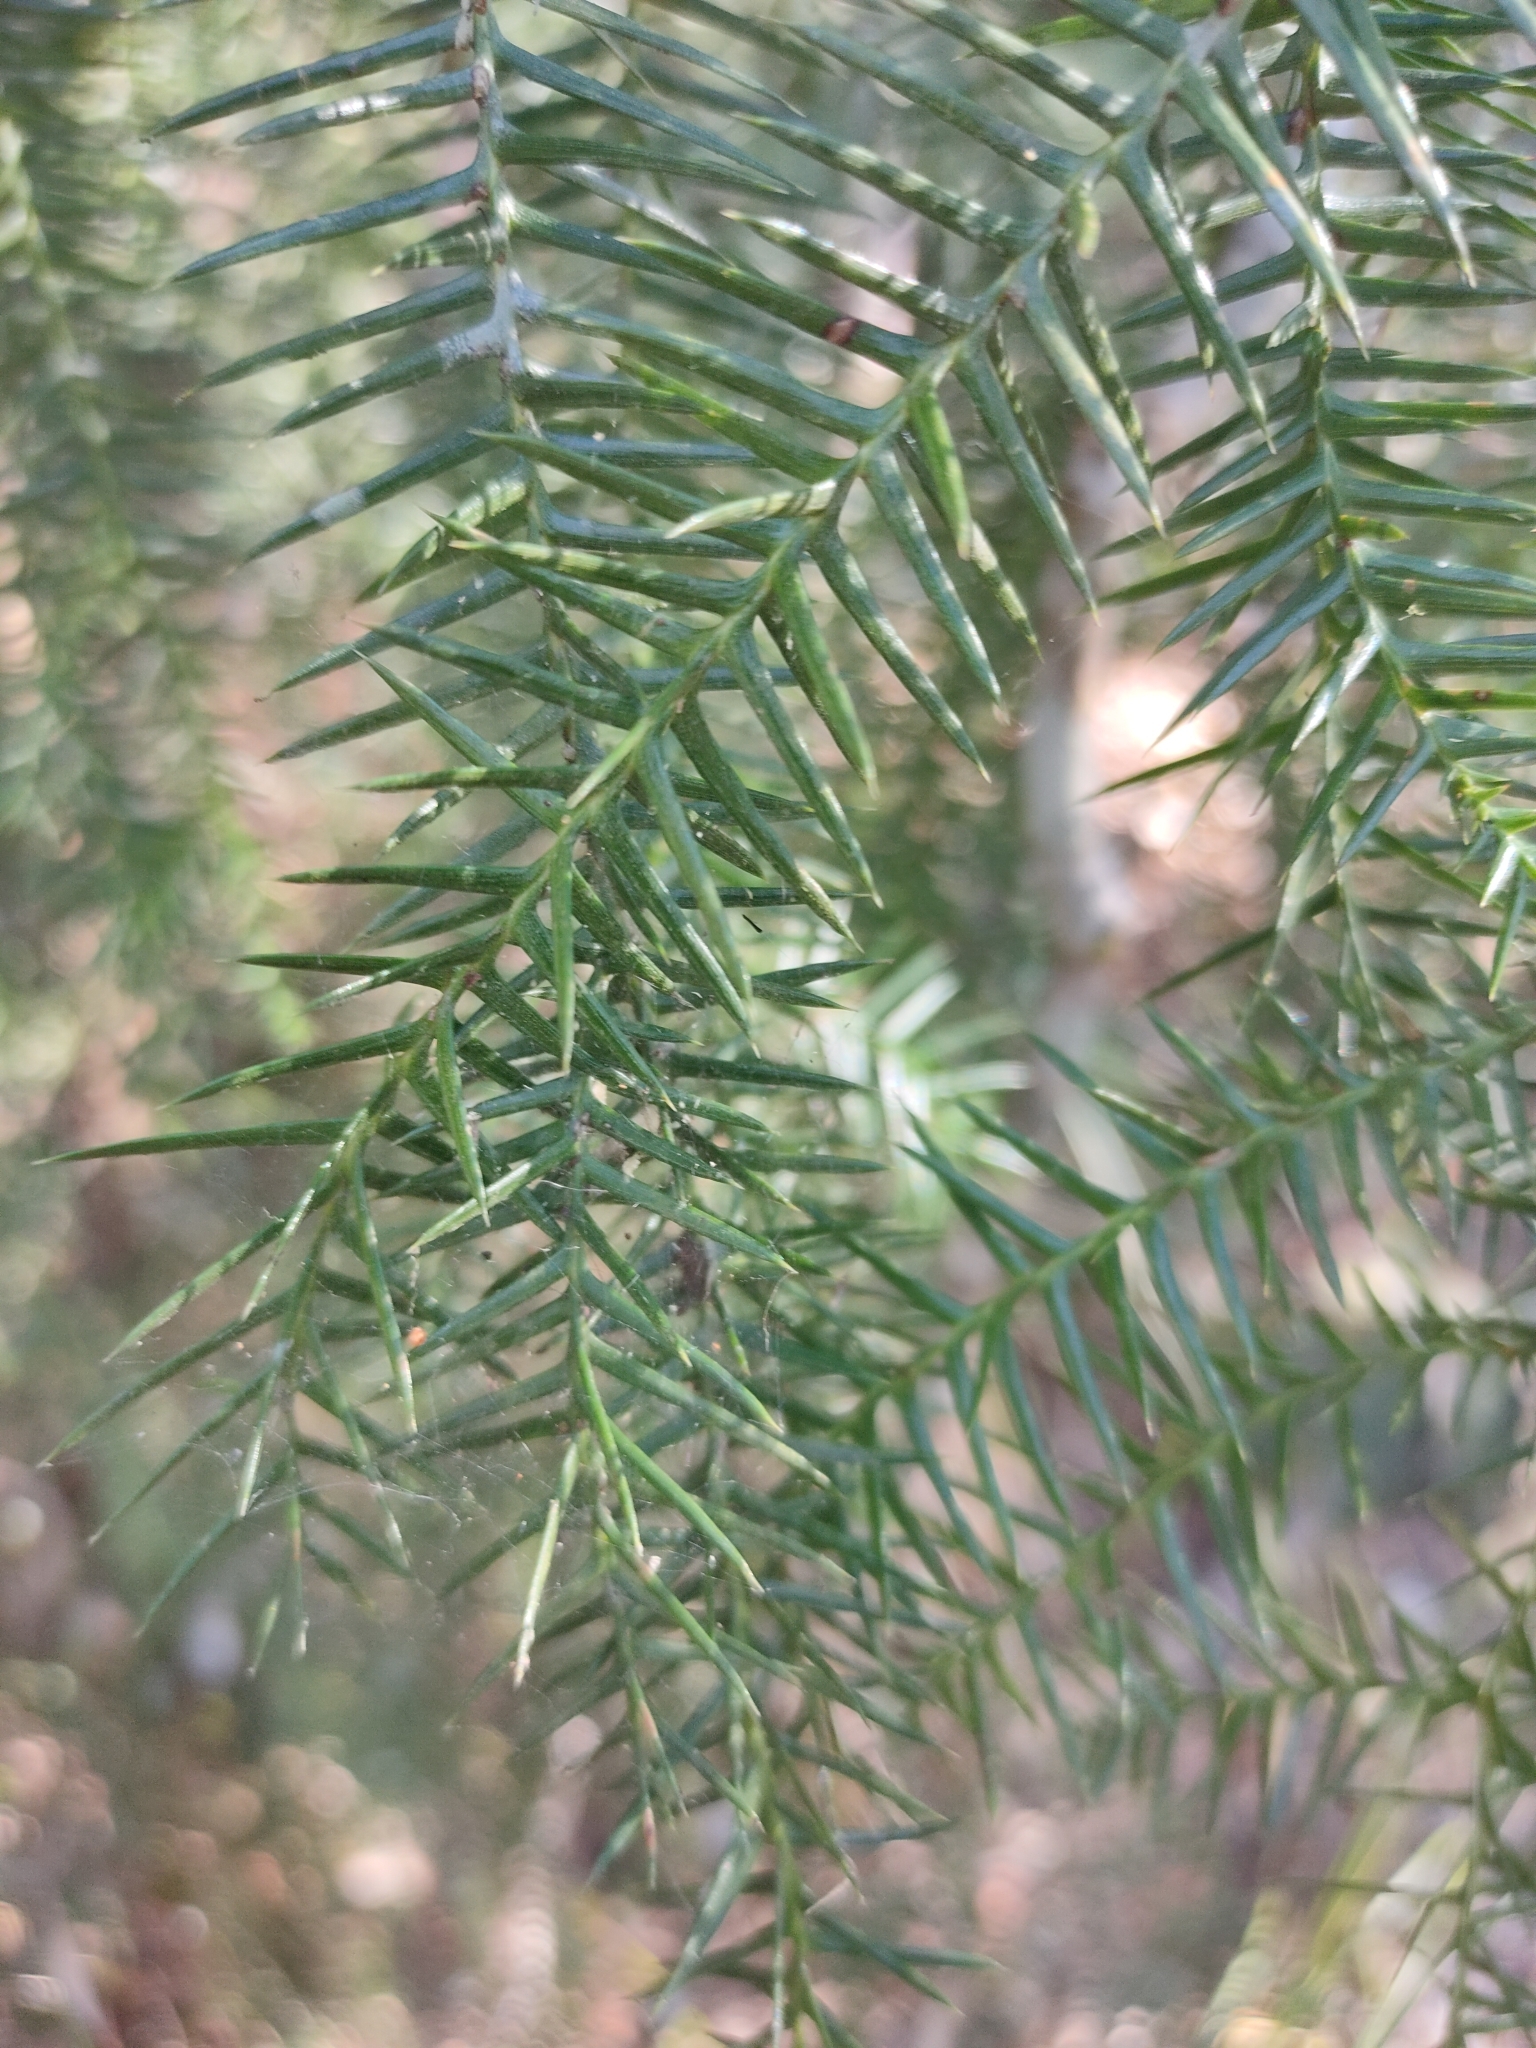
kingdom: Plantae
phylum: Tracheophyta
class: Pinopsida
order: Pinales
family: Araucariaceae
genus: Araucaria
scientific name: Araucaria cunninghamii
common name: Colonial pine
